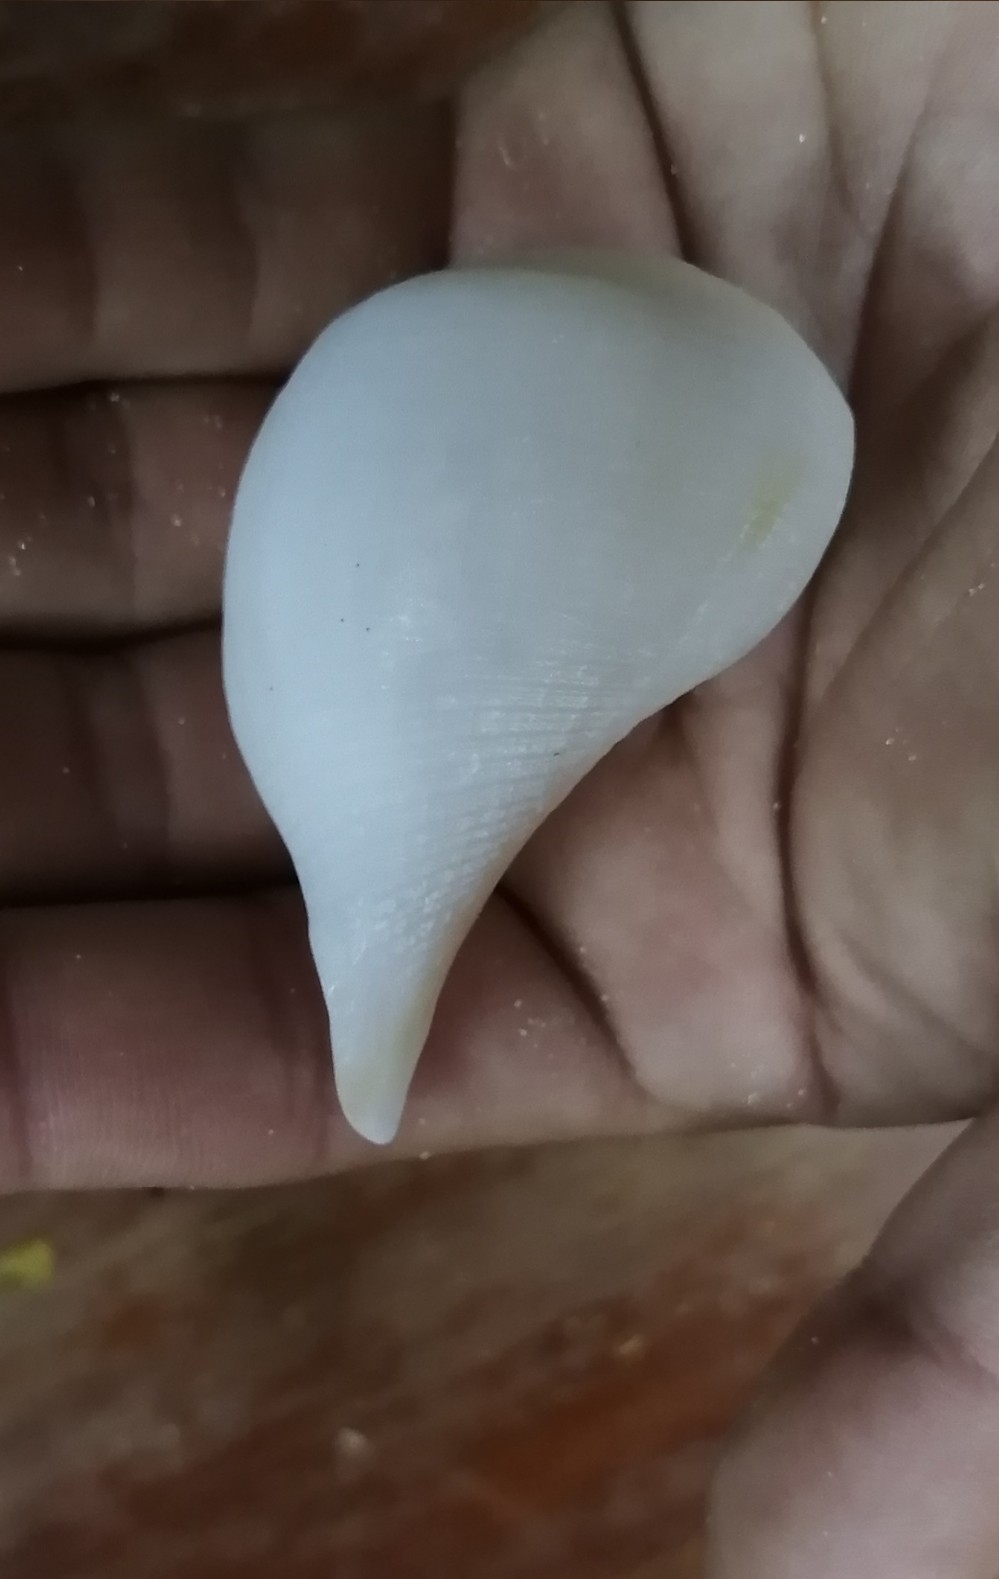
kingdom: Animalia
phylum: Mollusca
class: Gastropoda
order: Neogastropoda
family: Busyconidae
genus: Fulguropsis
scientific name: Fulguropsis spirata
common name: Pear whelk
